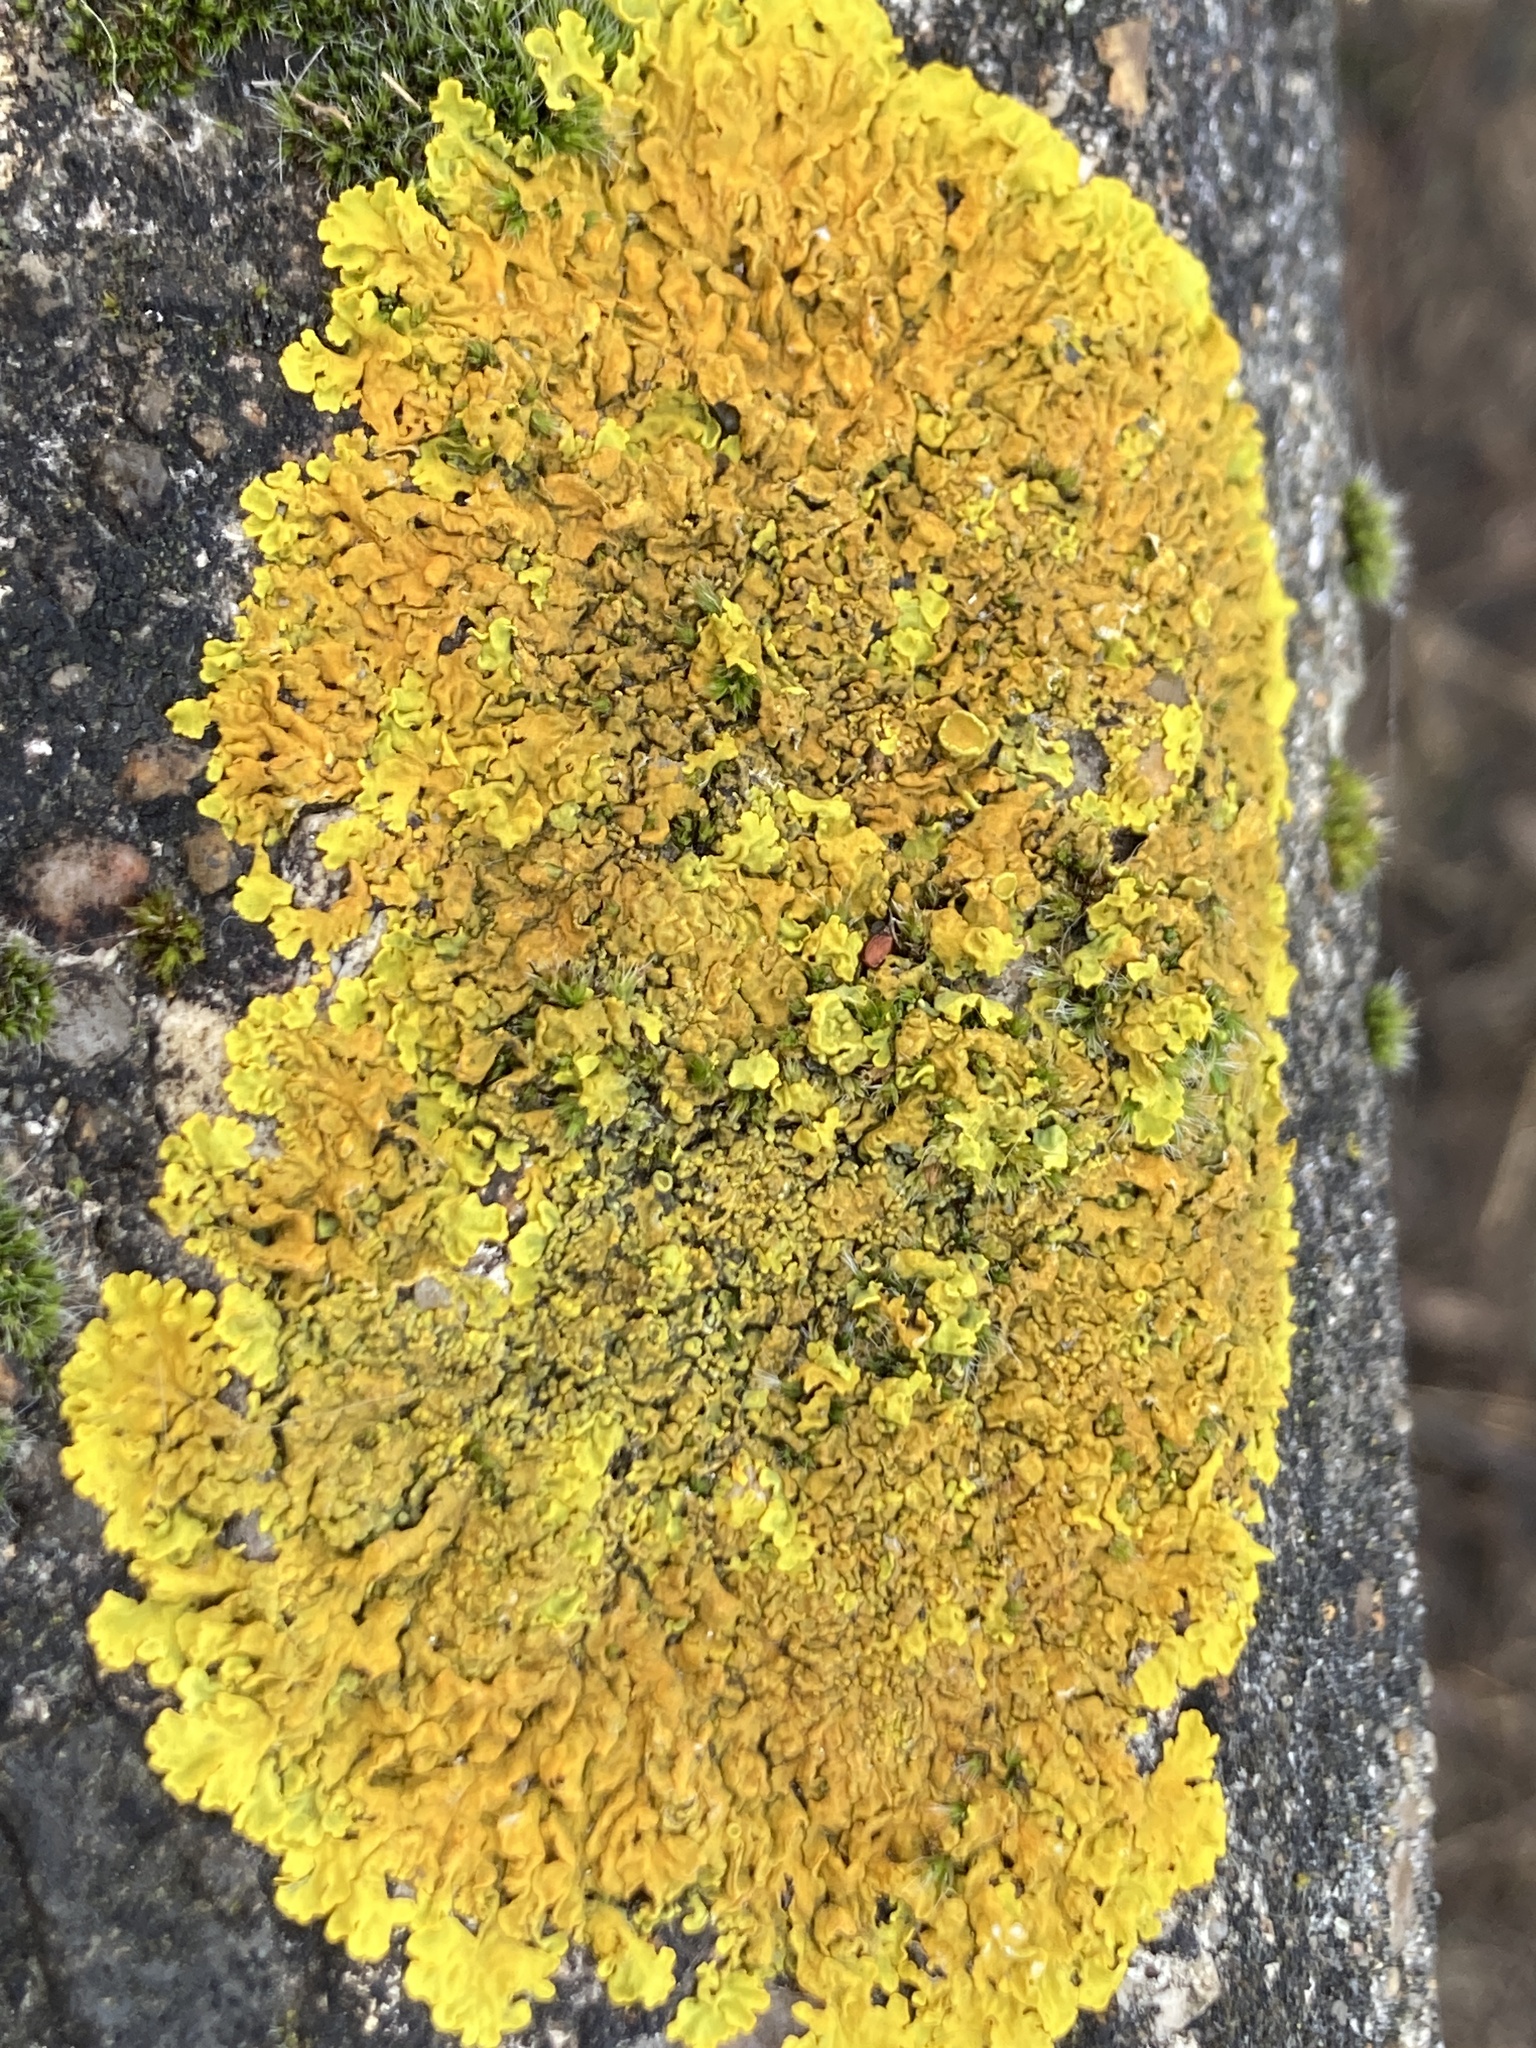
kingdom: Fungi
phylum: Ascomycota
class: Lecanoromycetes
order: Teloschistales
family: Teloschistaceae
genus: Xanthoria
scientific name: Xanthoria calcicola
